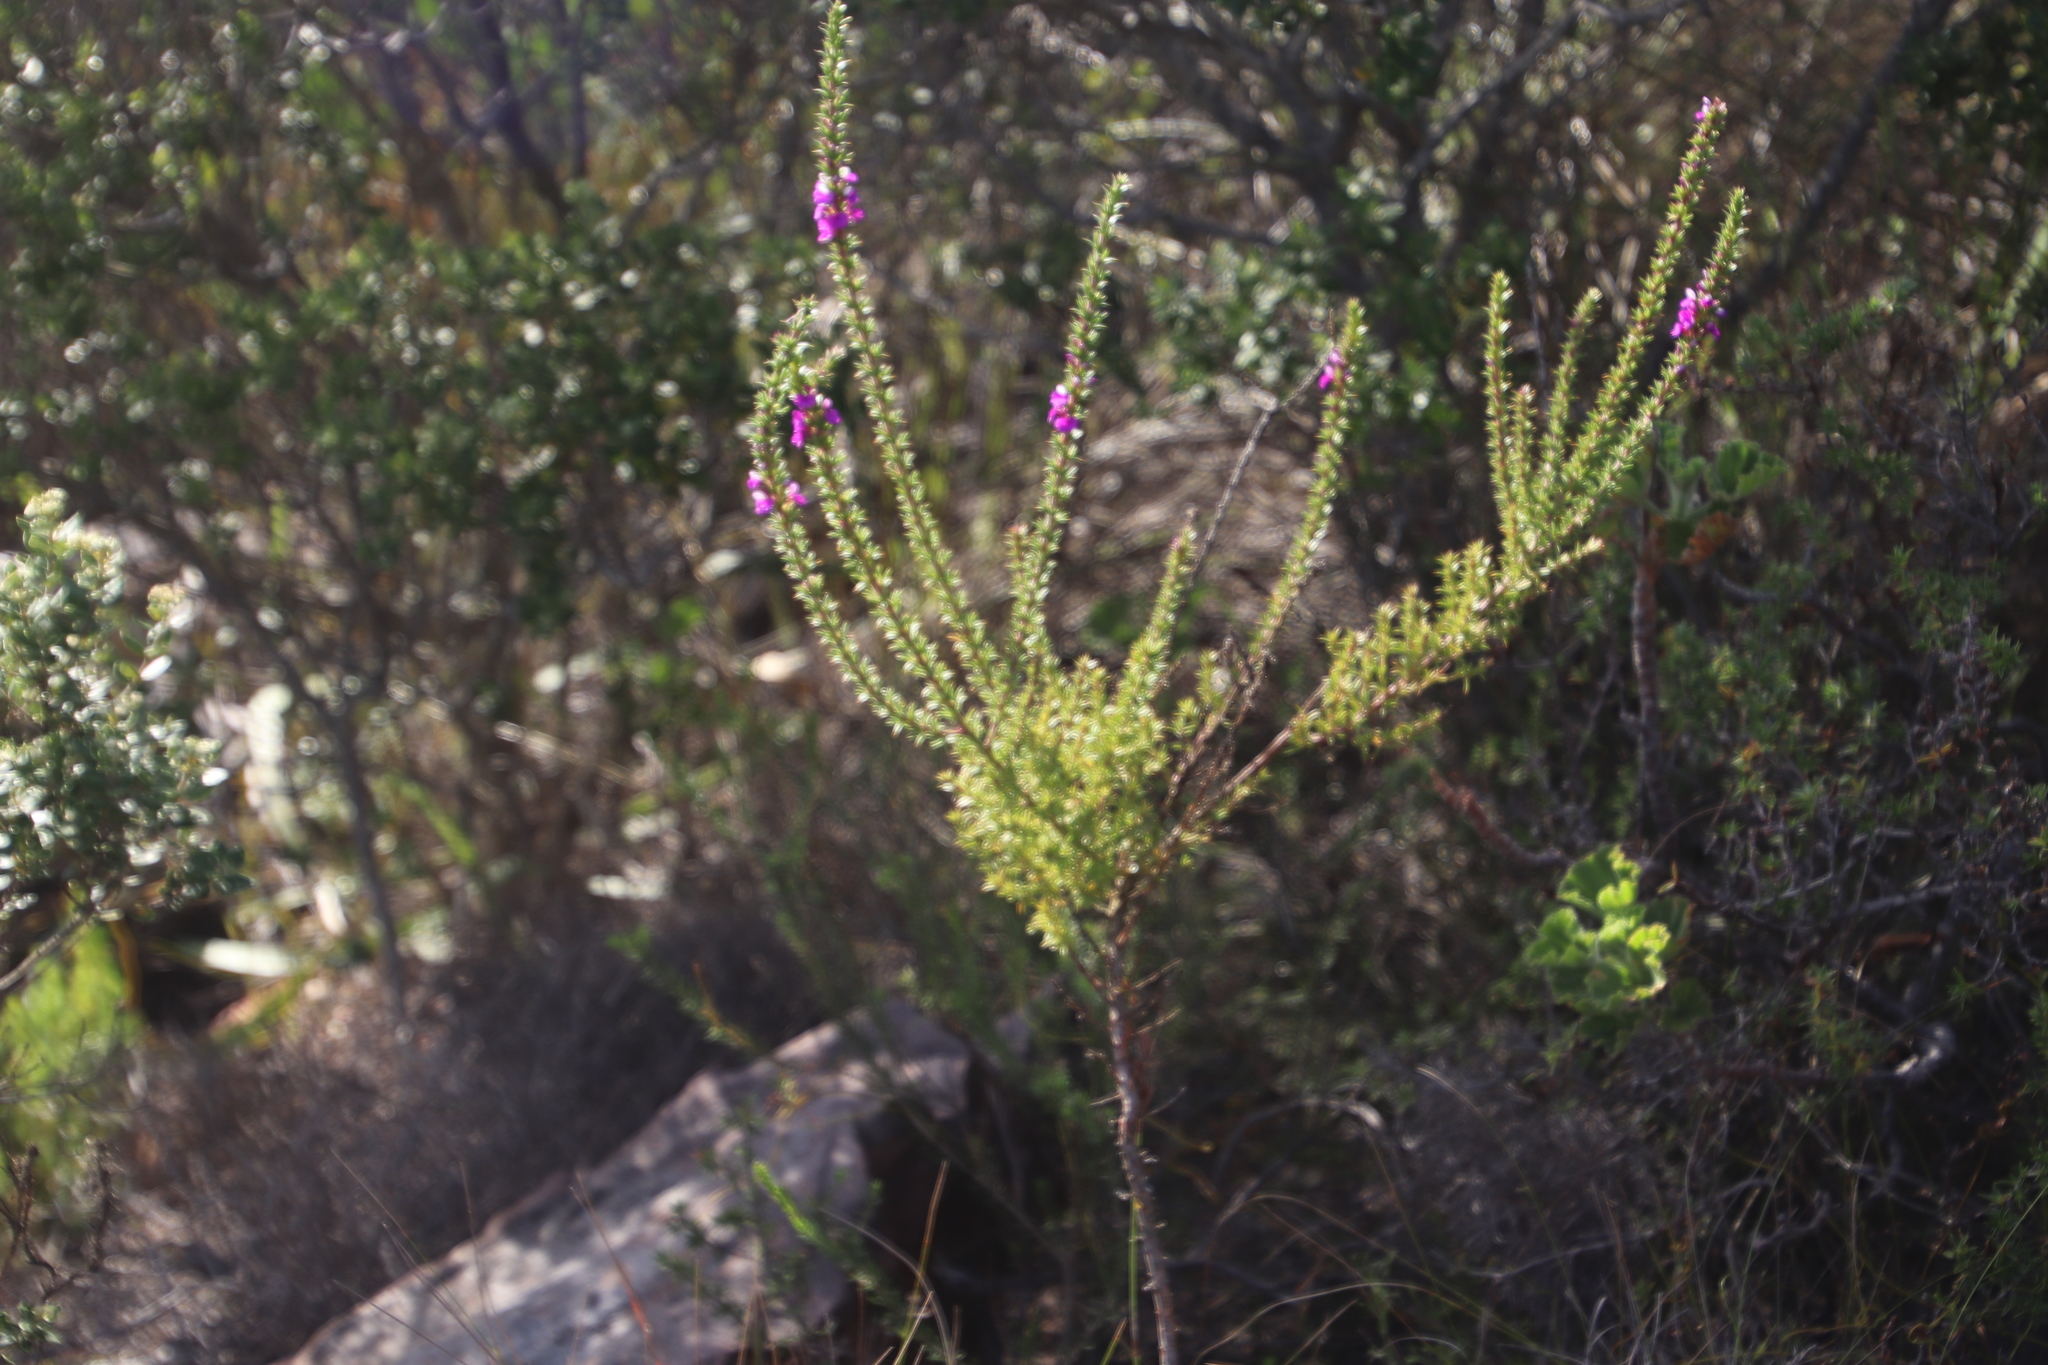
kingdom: Plantae
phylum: Tracheophyta
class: Magnoliopsida
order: Fabales
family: Polygalaceae
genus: Muraltia
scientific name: Muraltia heisteria
